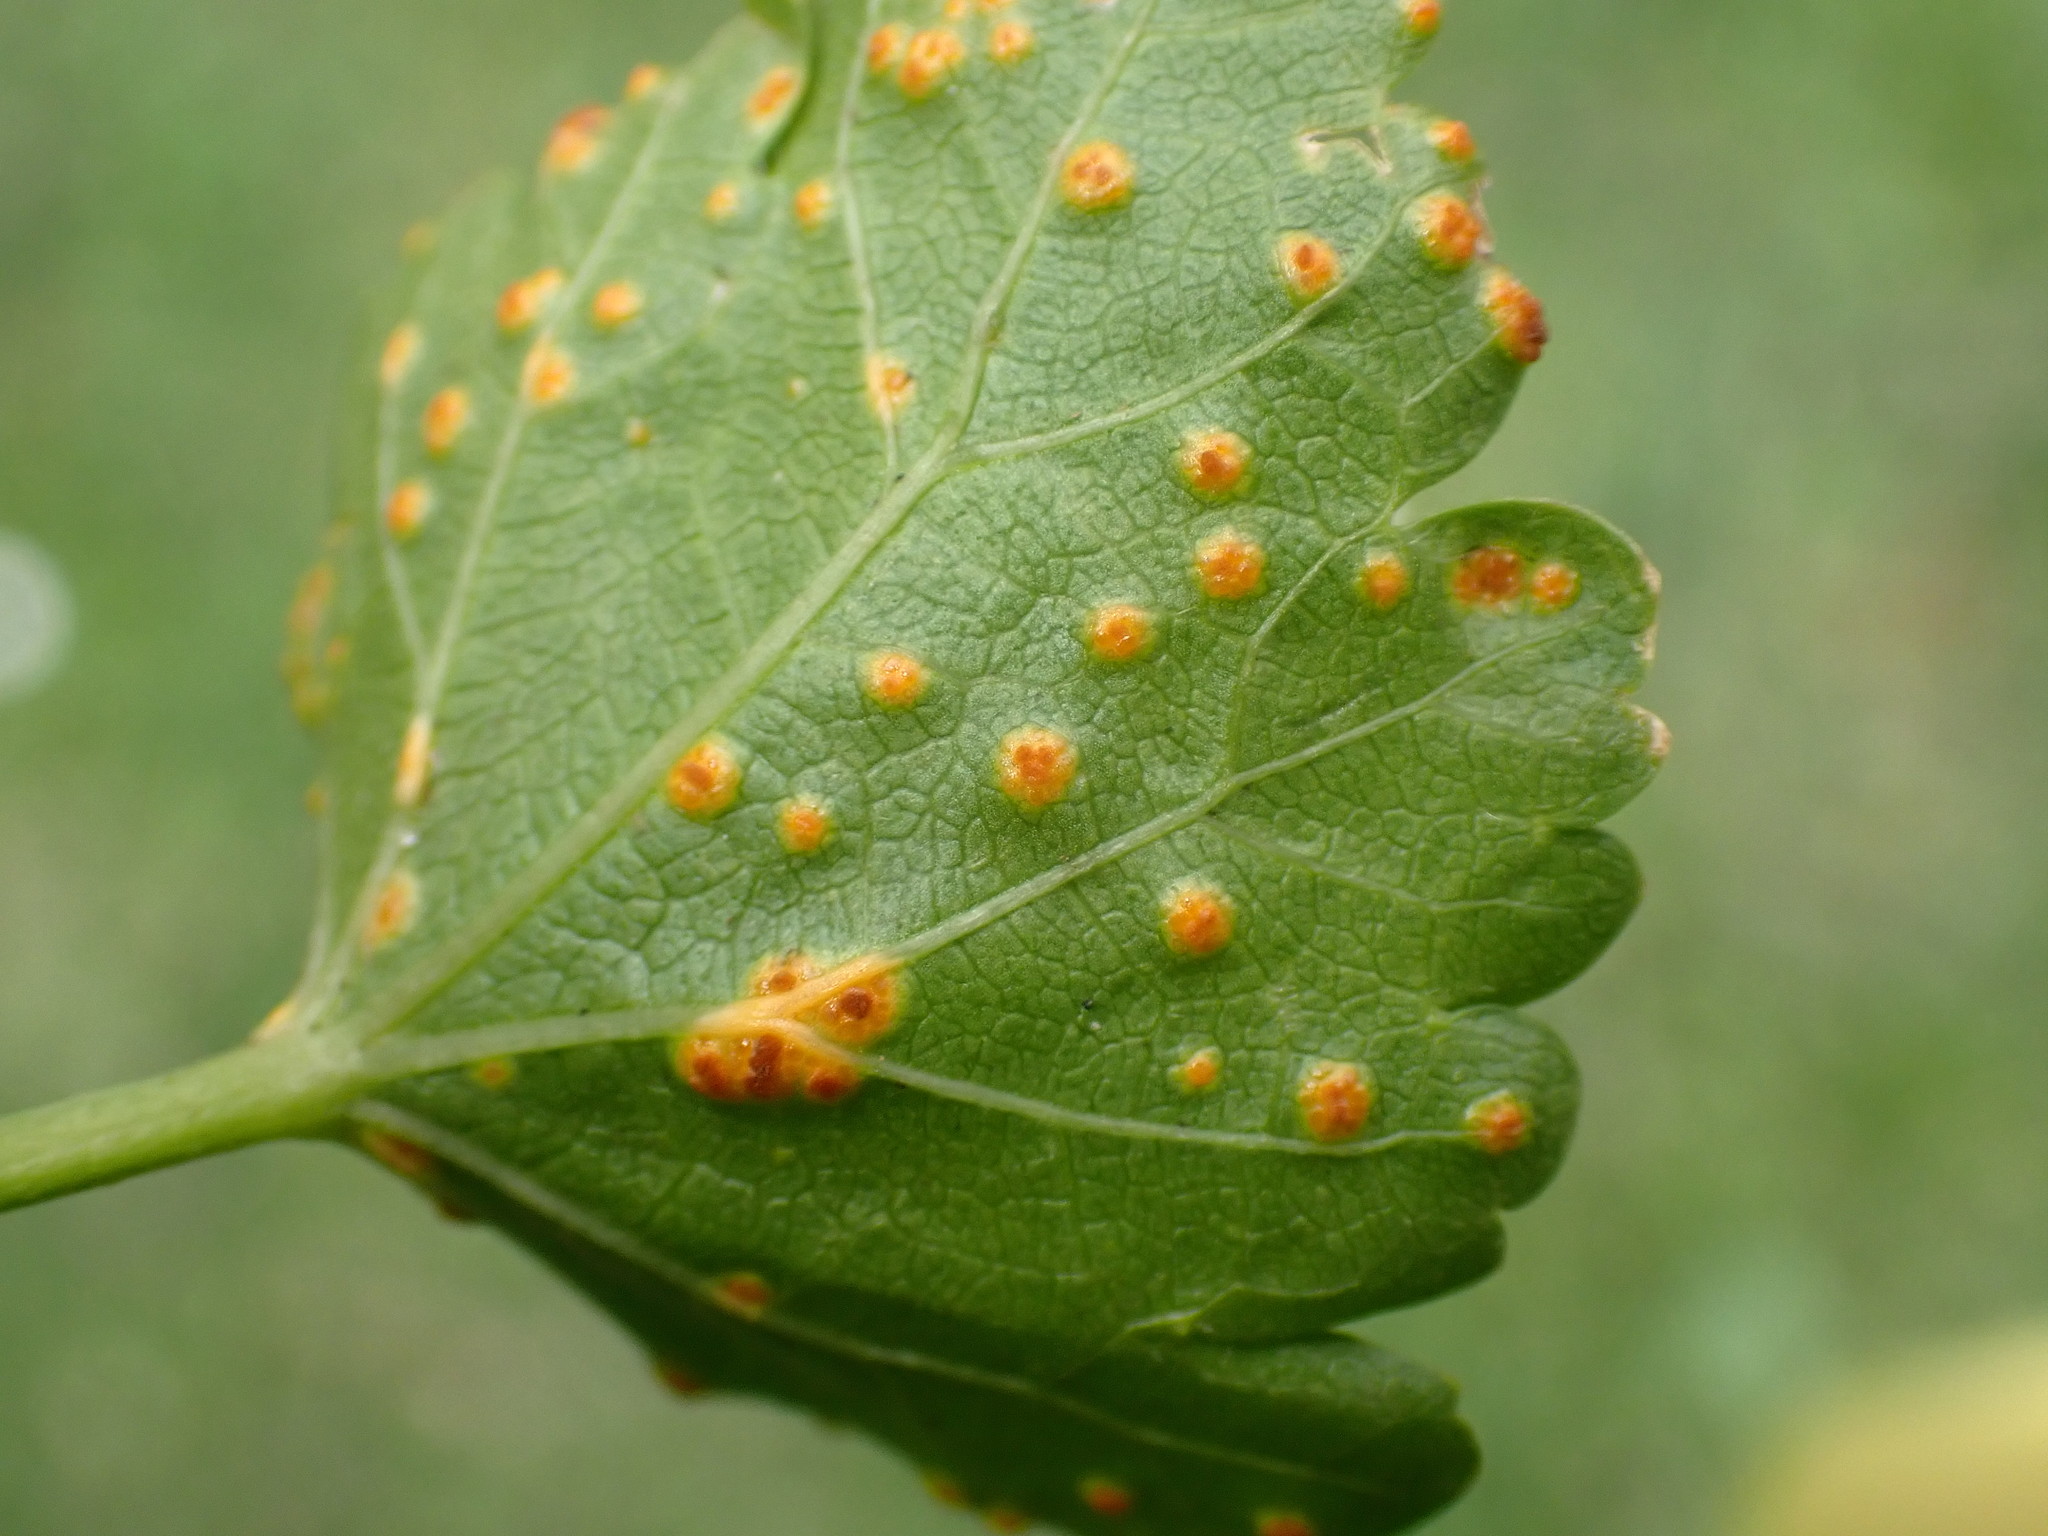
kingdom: Fungi
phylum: Basidiomycota
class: Pucciniomycetes
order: Pucciniales
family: Pucciniaceae
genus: Puccinia
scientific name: Puccinia malvacearum
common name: Hollyhock rust
